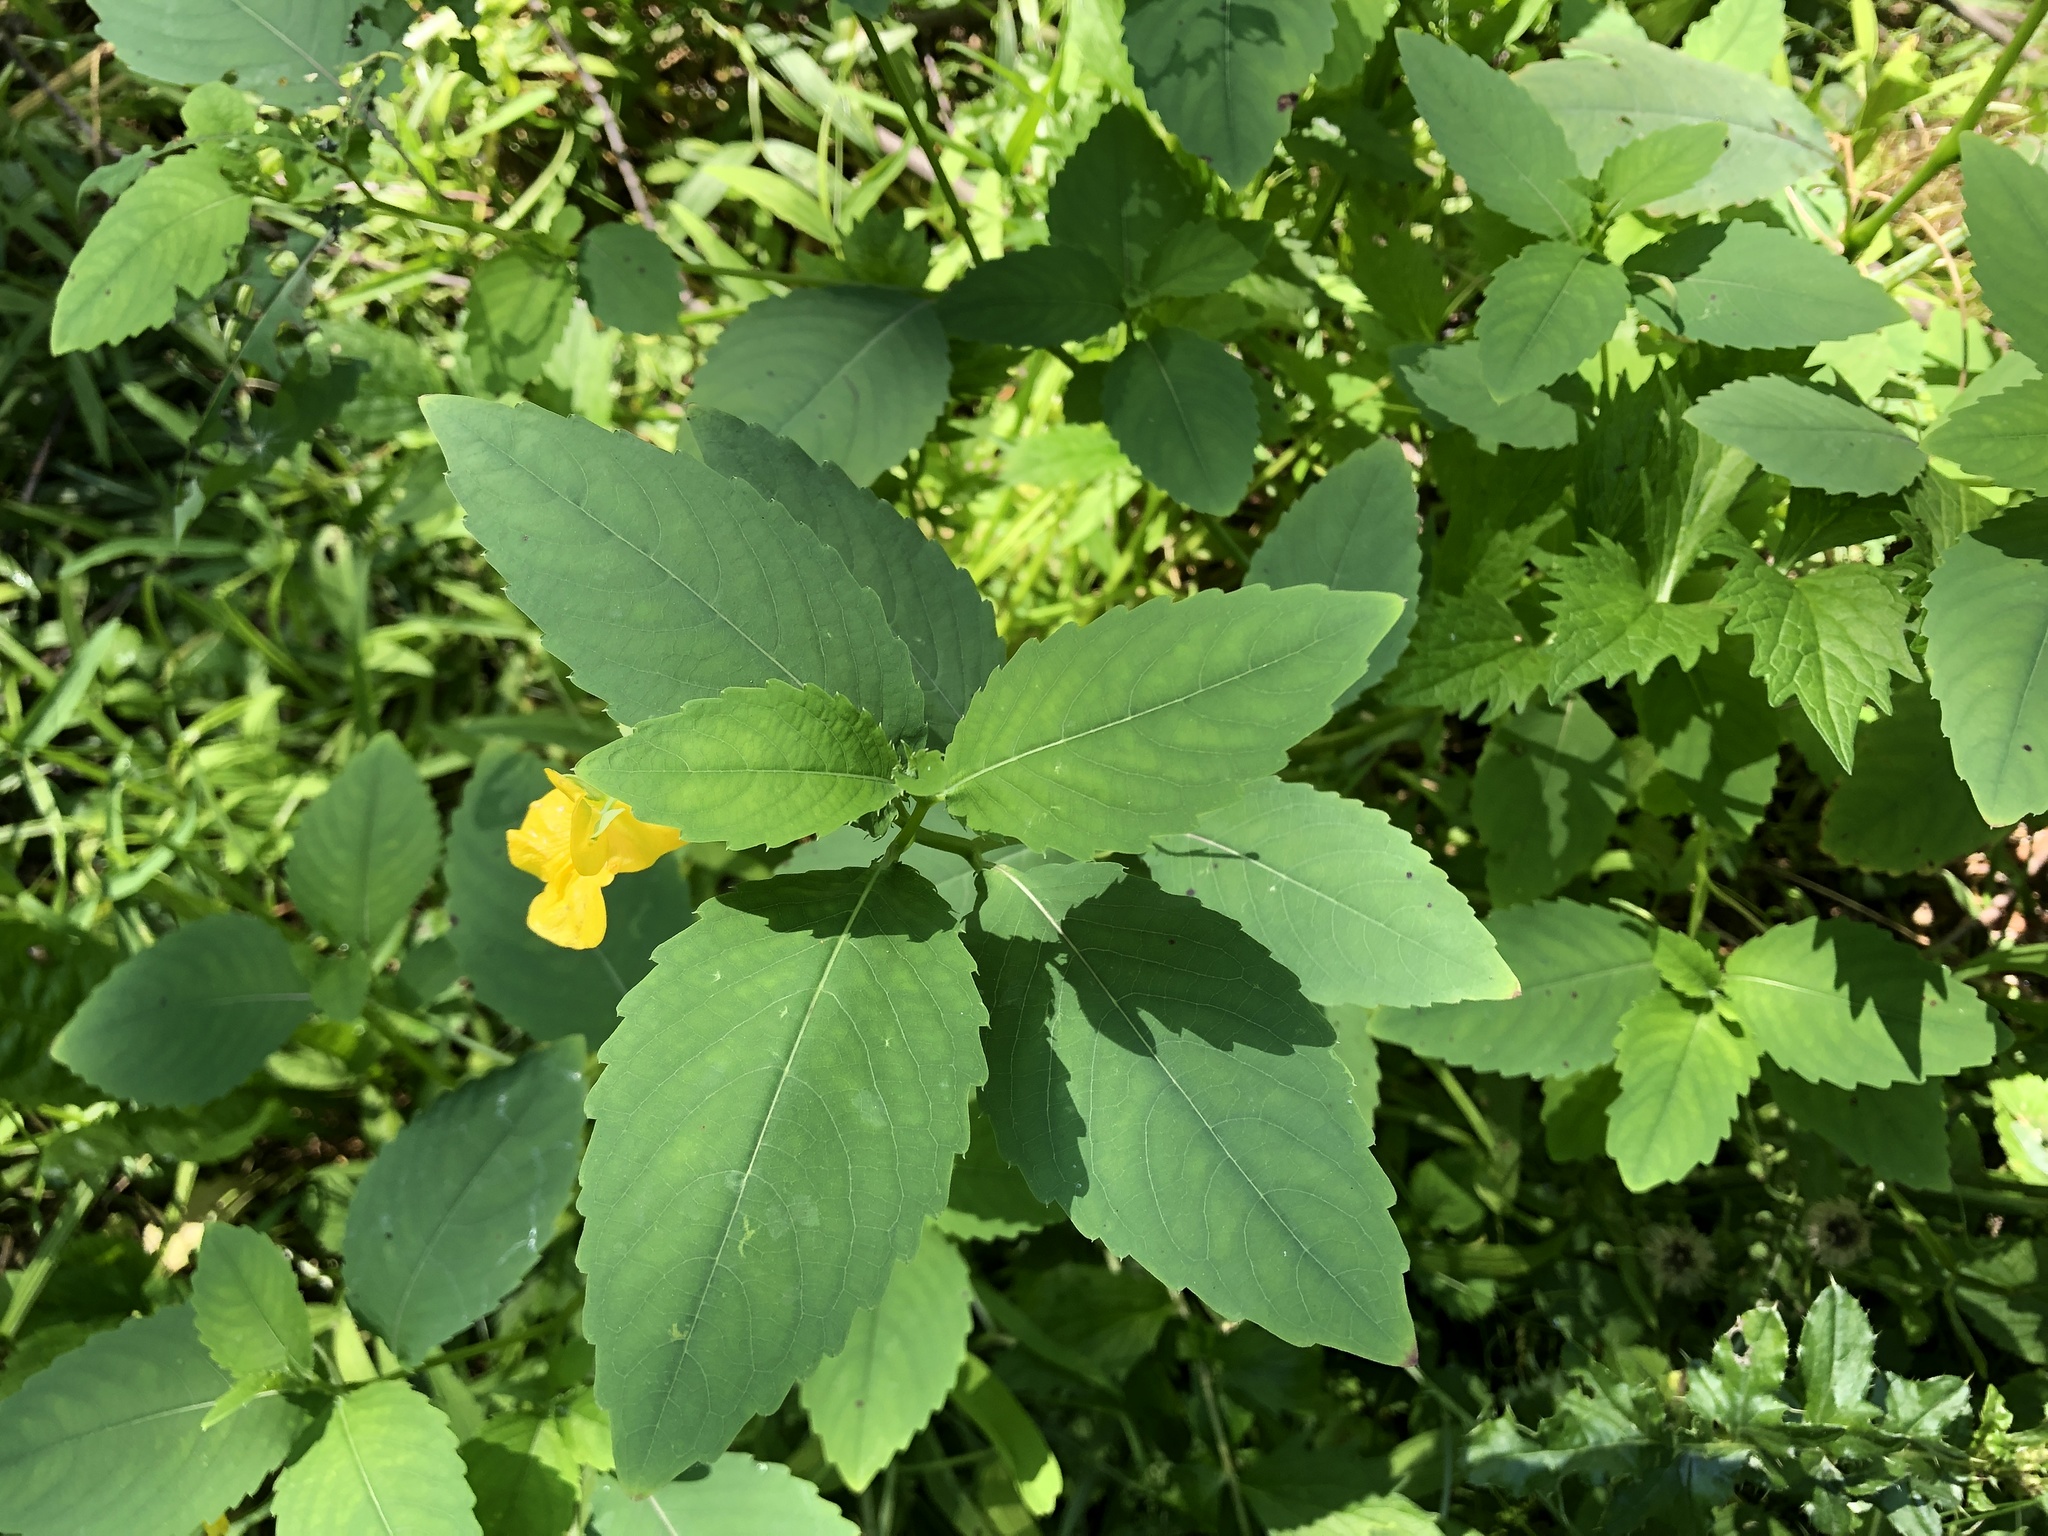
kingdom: Plantae
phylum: Tracheophyta
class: Magnoliopsida
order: Ericales
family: Balsaminaceae
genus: Impatiens
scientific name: Impatiens pallida
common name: Pale snapweed
